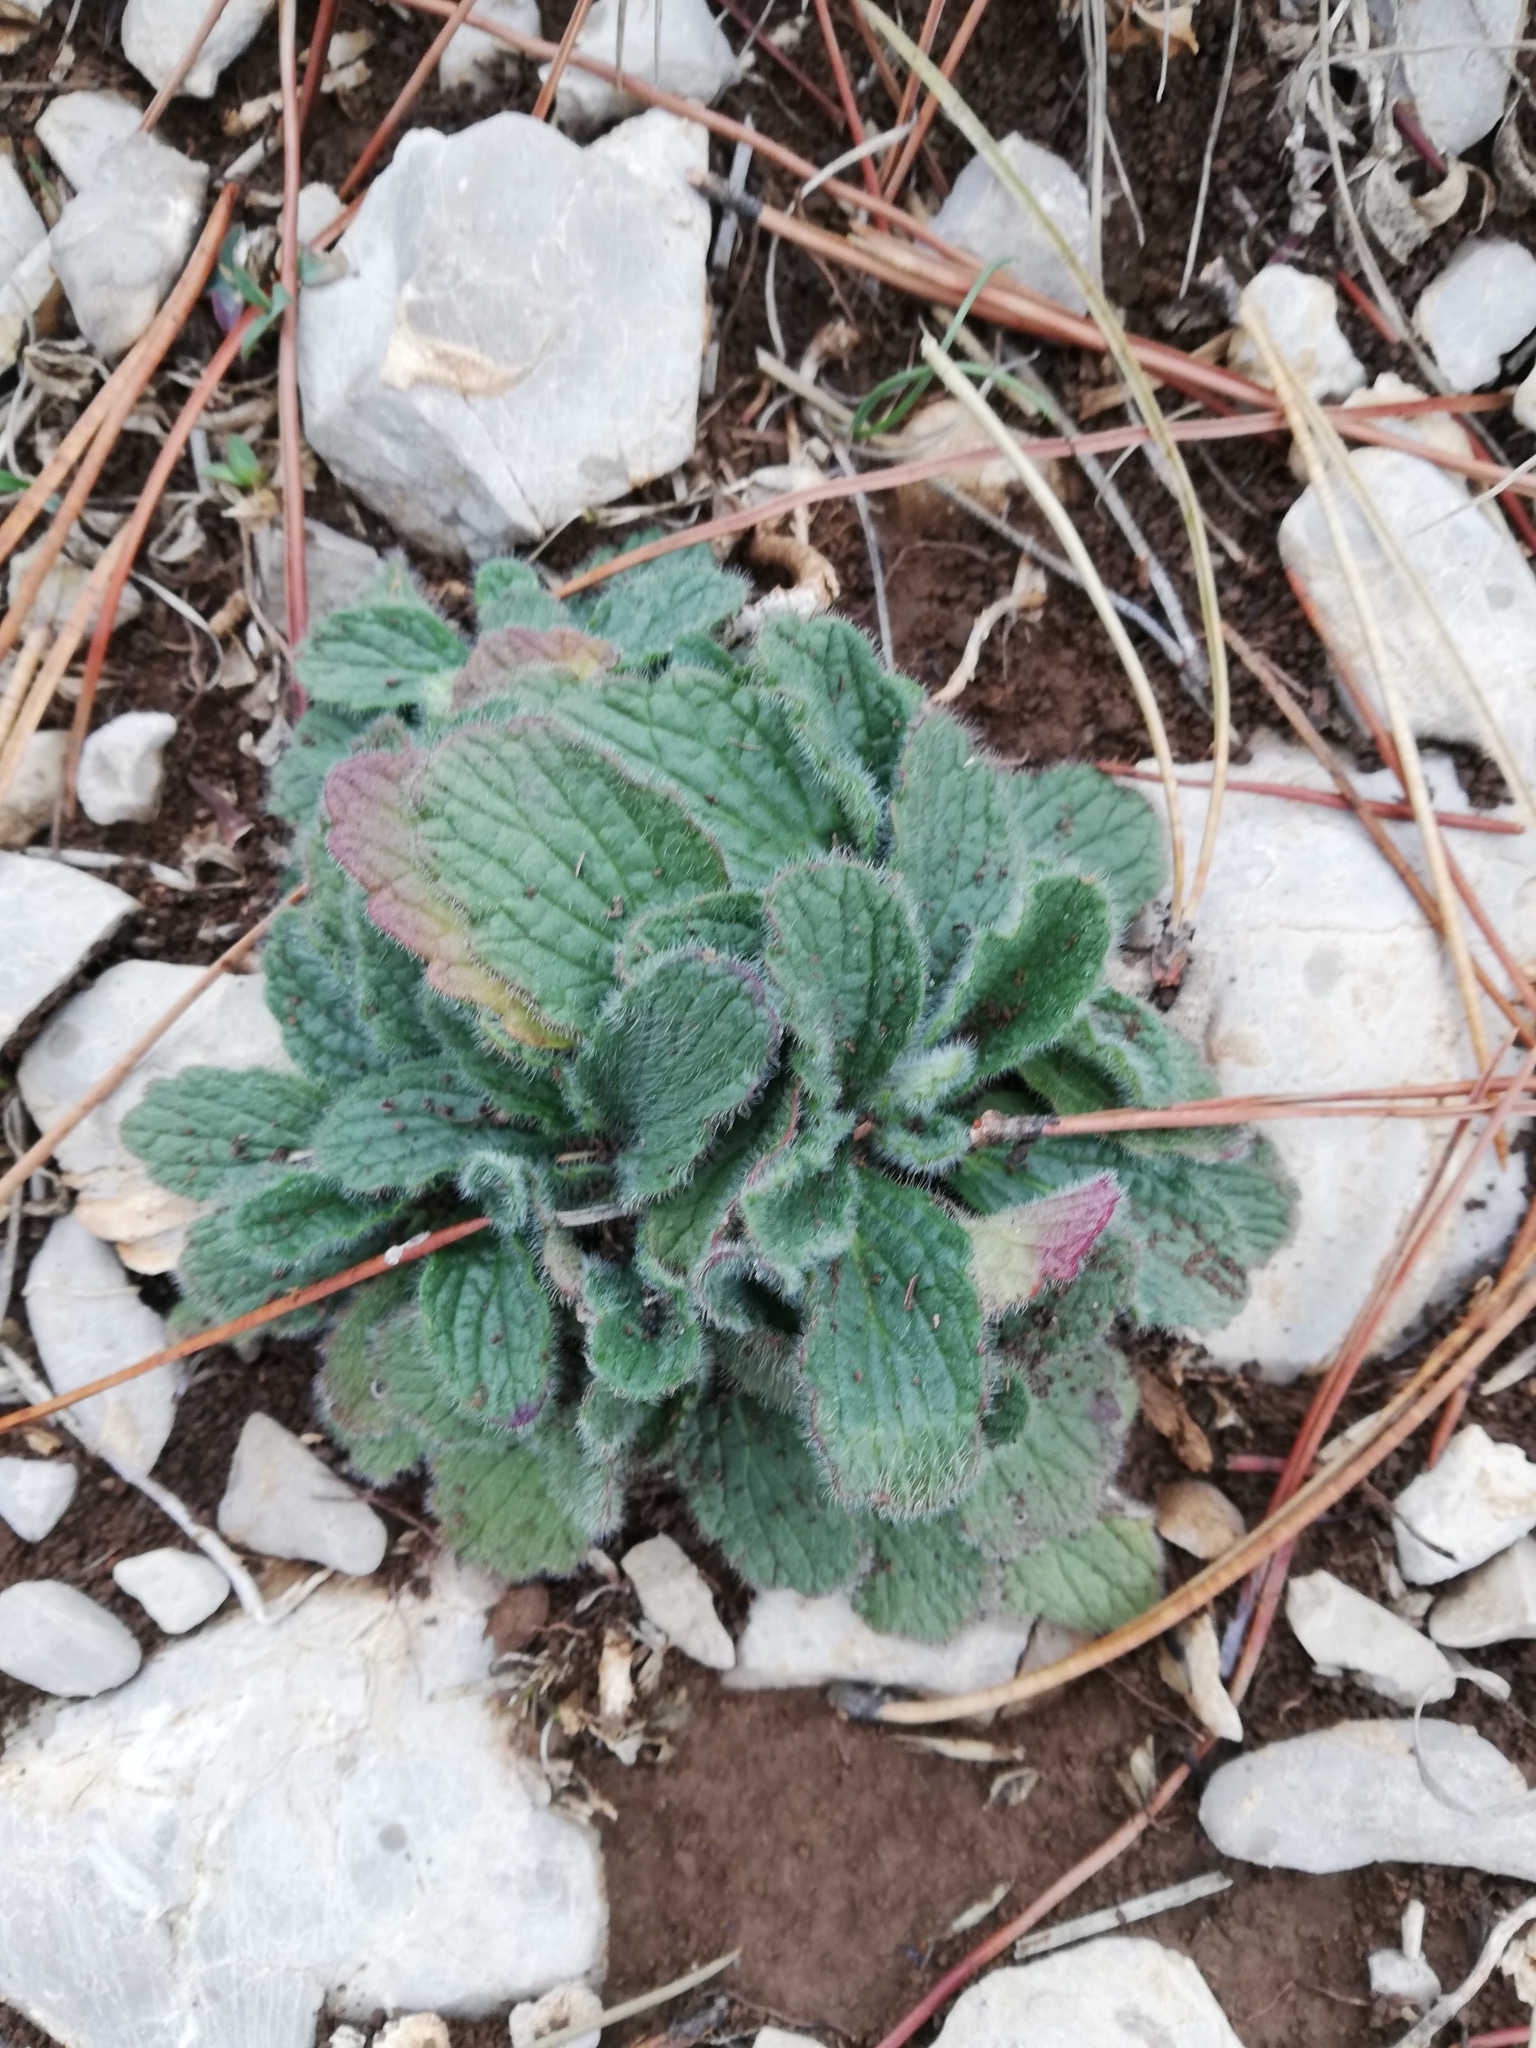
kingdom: Plantae
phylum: Tracheophyta
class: Magnoliopsida
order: Lamiales
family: Lamiaceae
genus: Ajuga
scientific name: Ajuga orientalis
